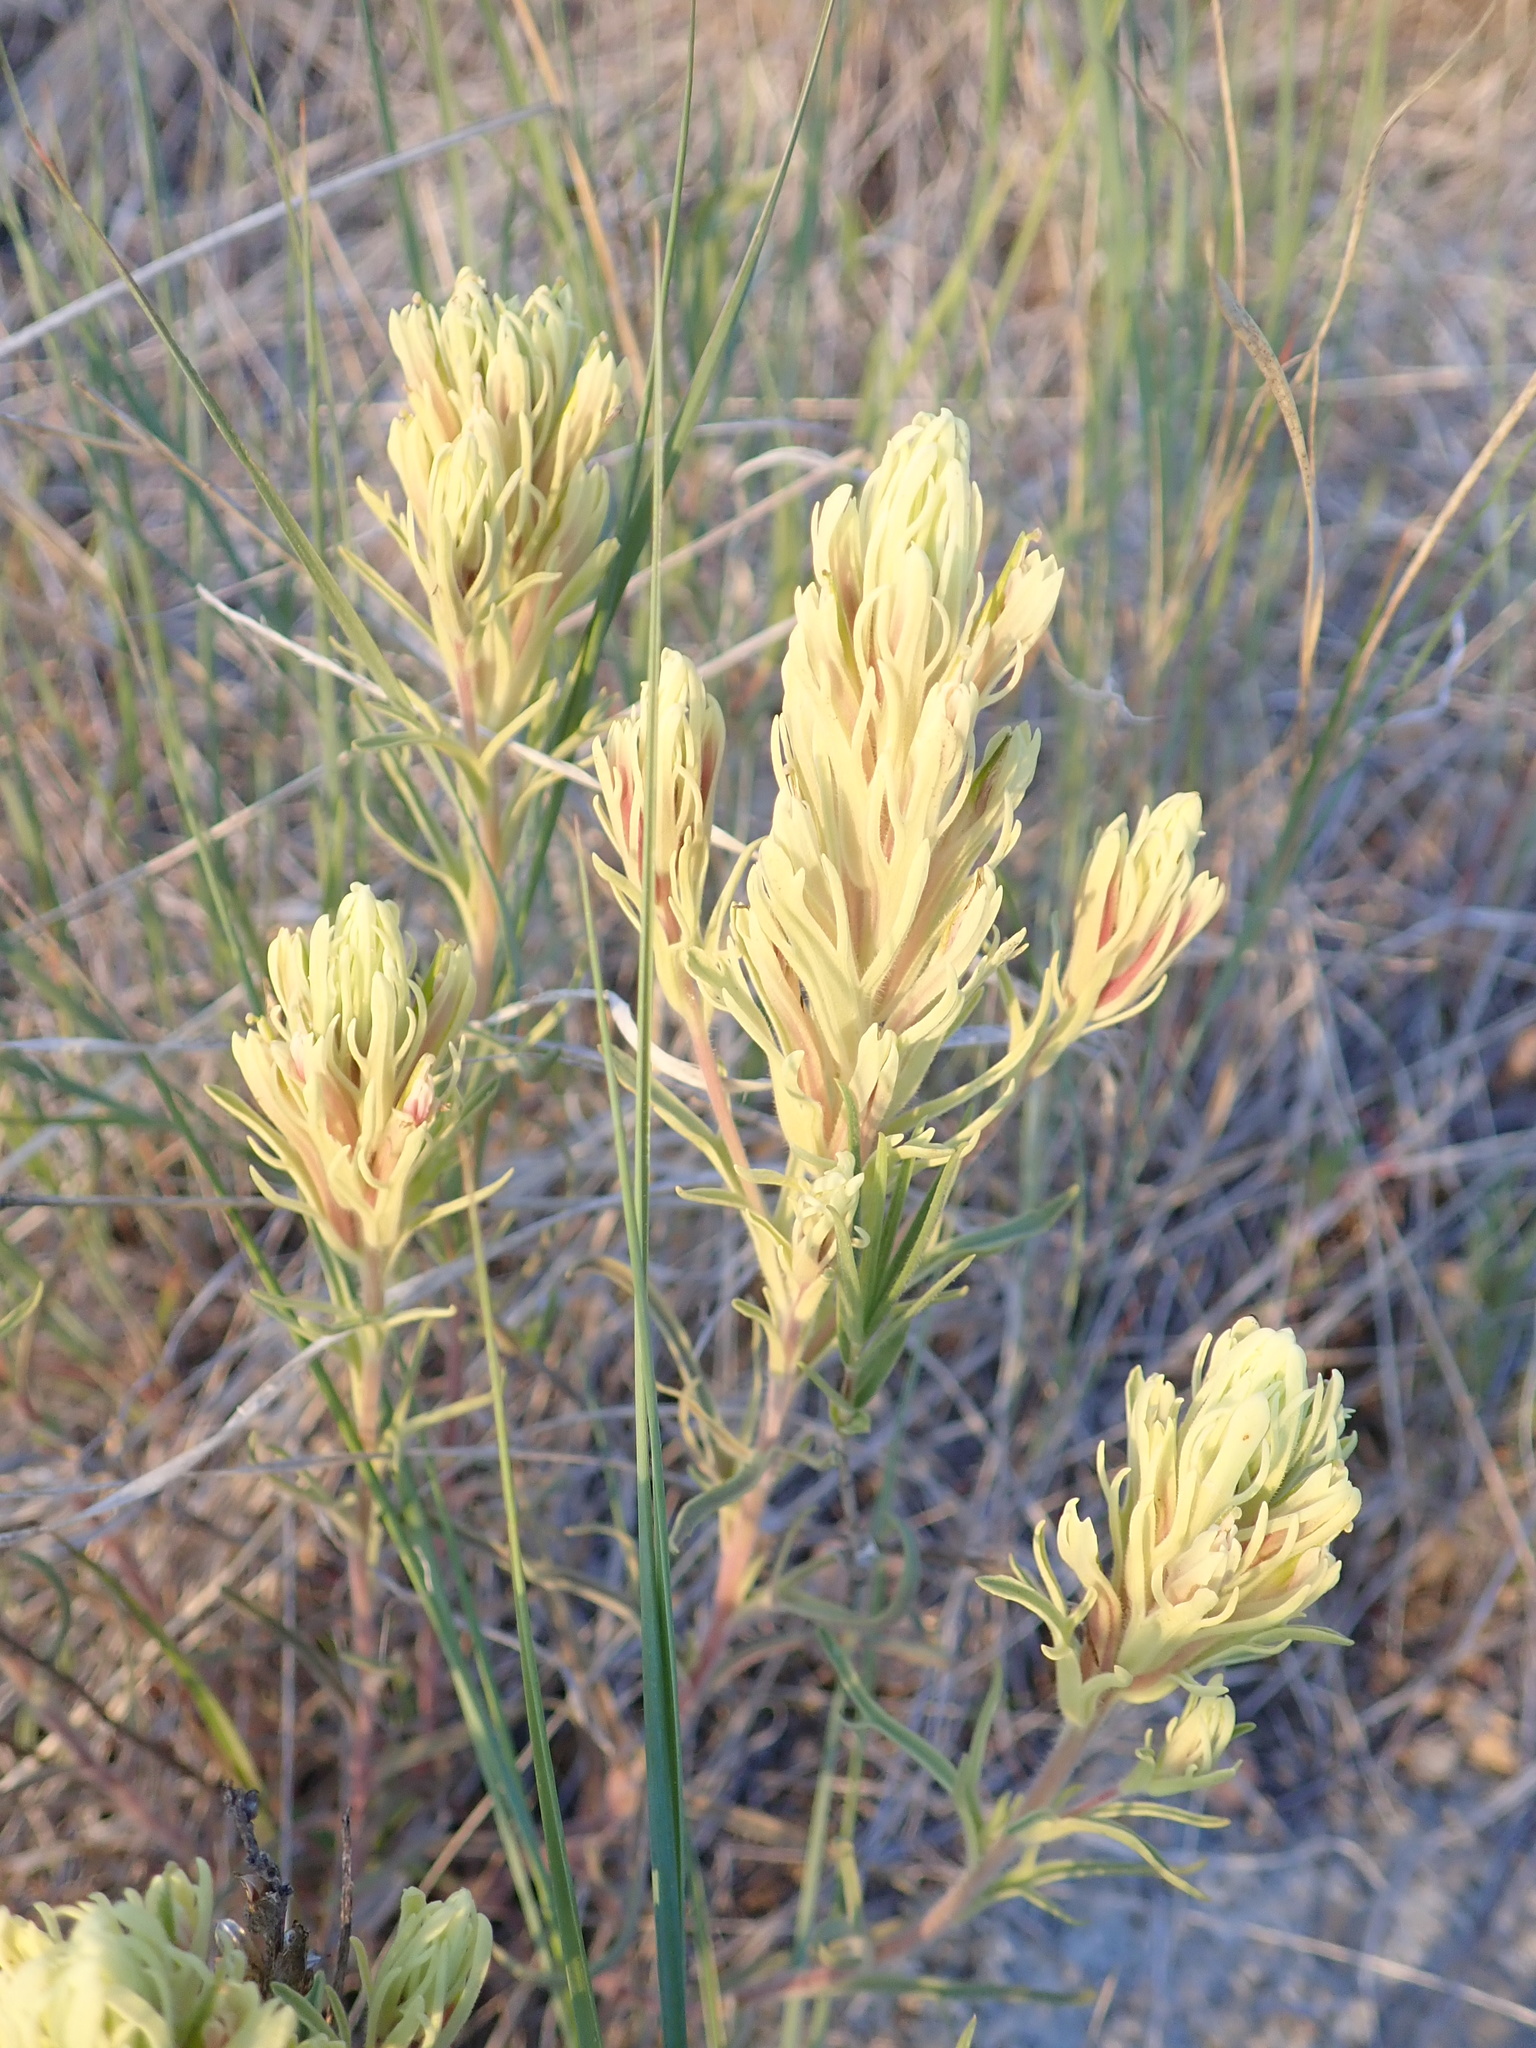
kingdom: Plantae
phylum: Tracheophyta
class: Magnoliopsida
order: Lamiales
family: Orobanchaceae
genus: Castilleja
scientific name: Castilleja thompsonii
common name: Thompson's paintbrush
